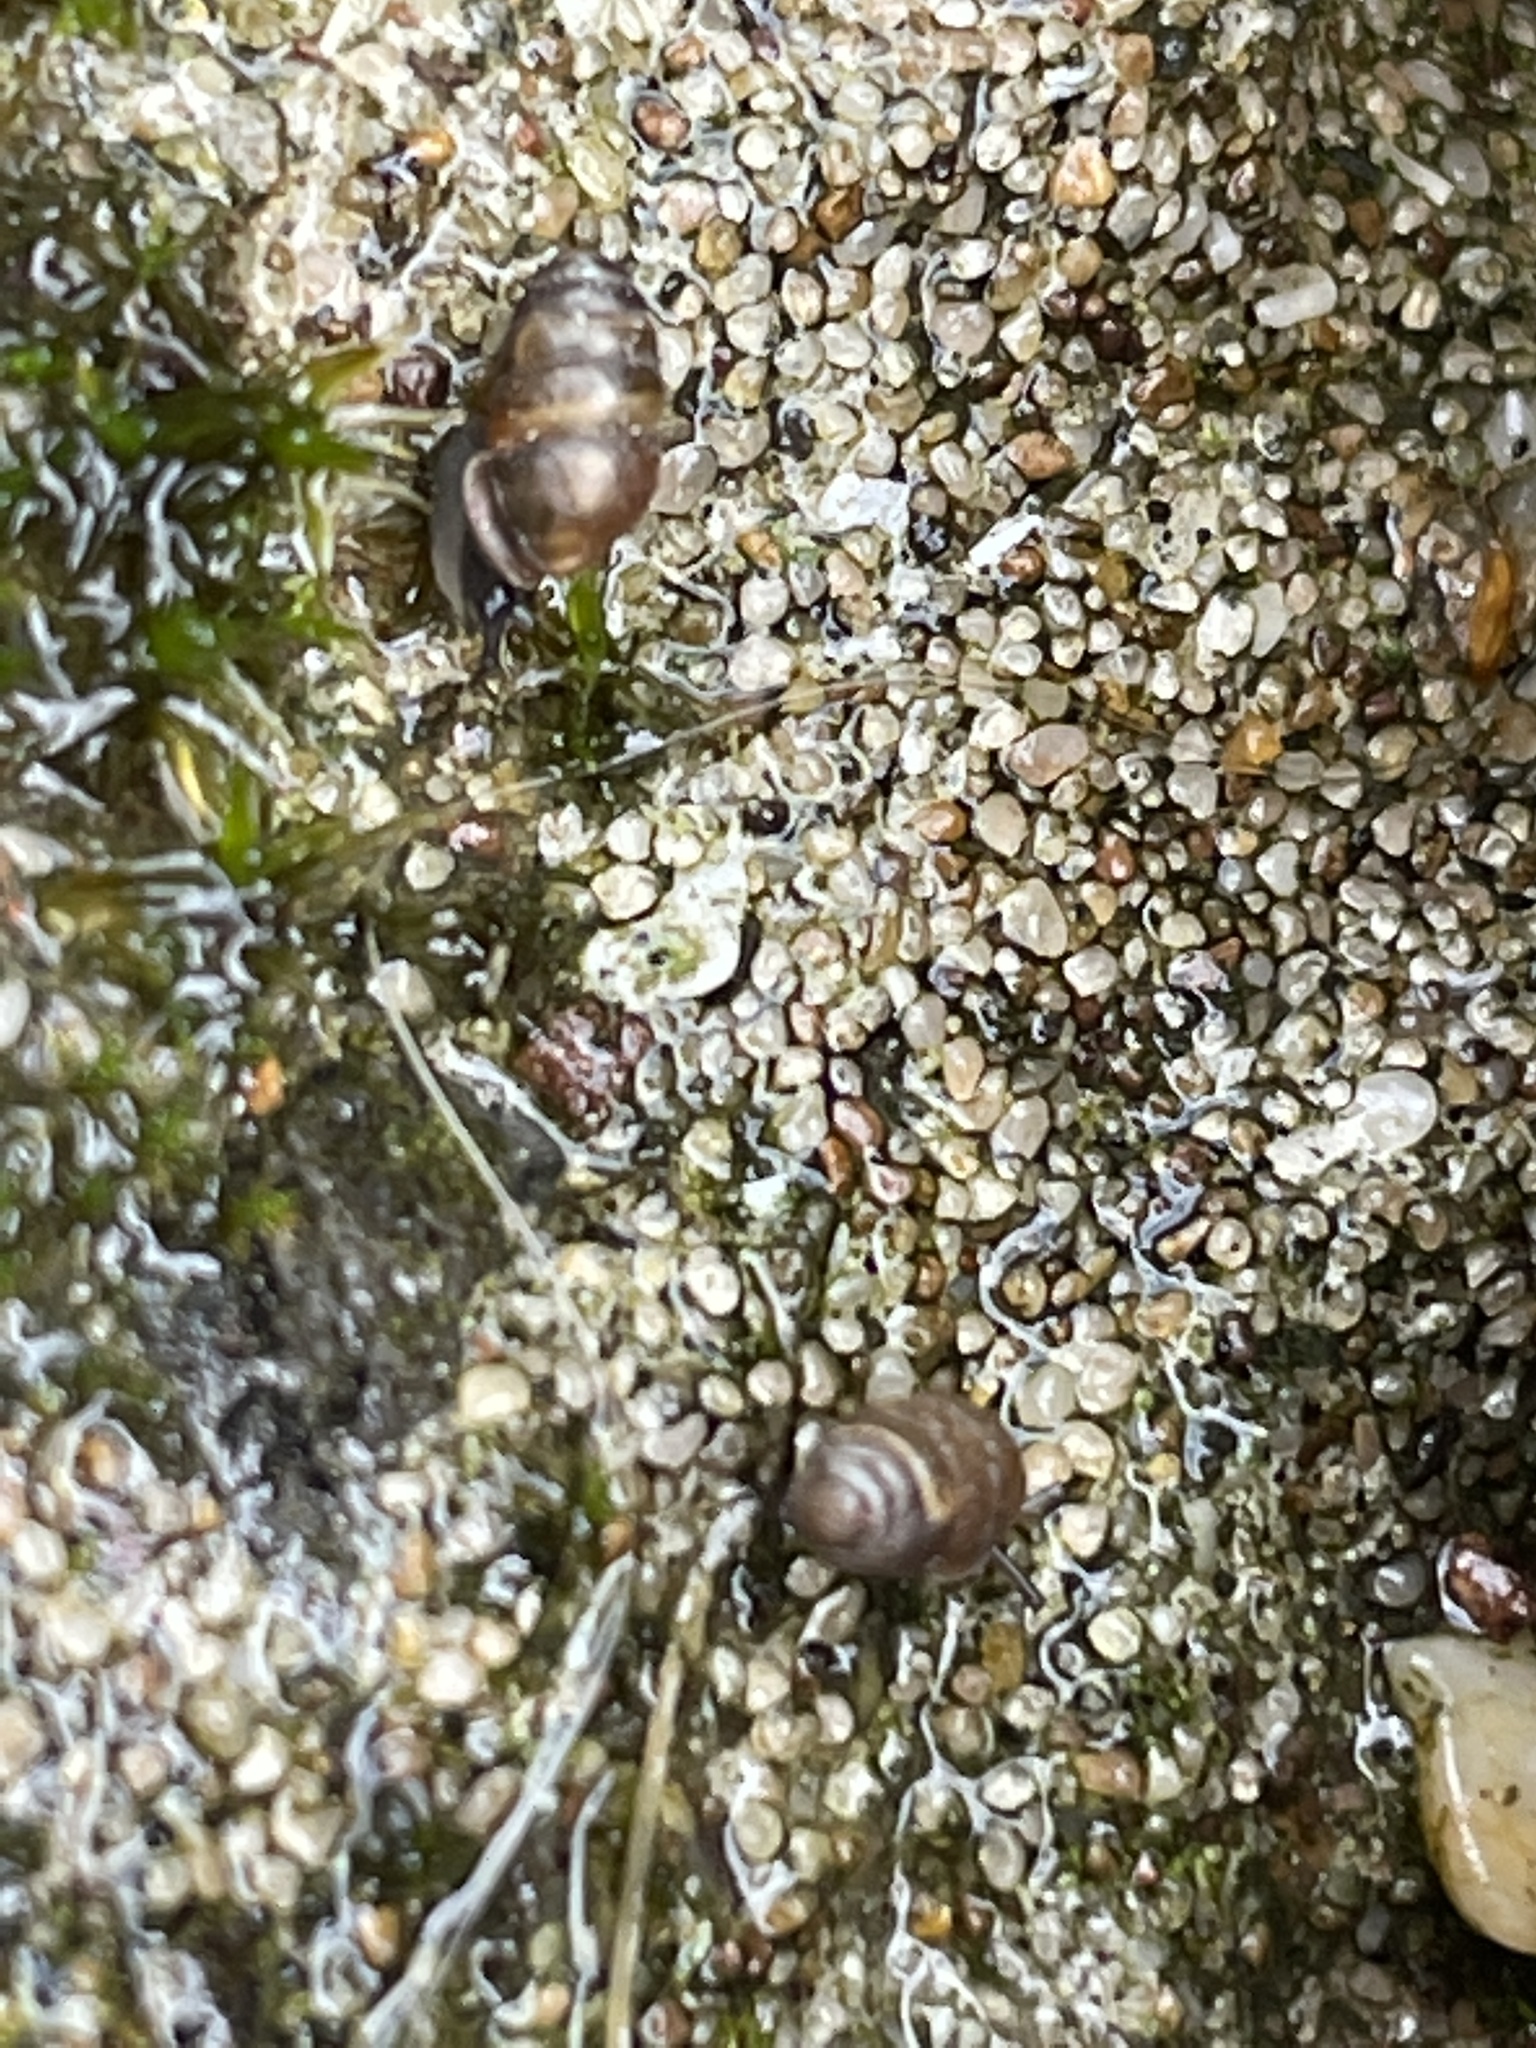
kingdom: Animalia
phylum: Mollusca
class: Gastropoda
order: Stylommatophora
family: Lauriidae
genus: Lauria
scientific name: Lauria cylindracea
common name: Common chrysalis snail
